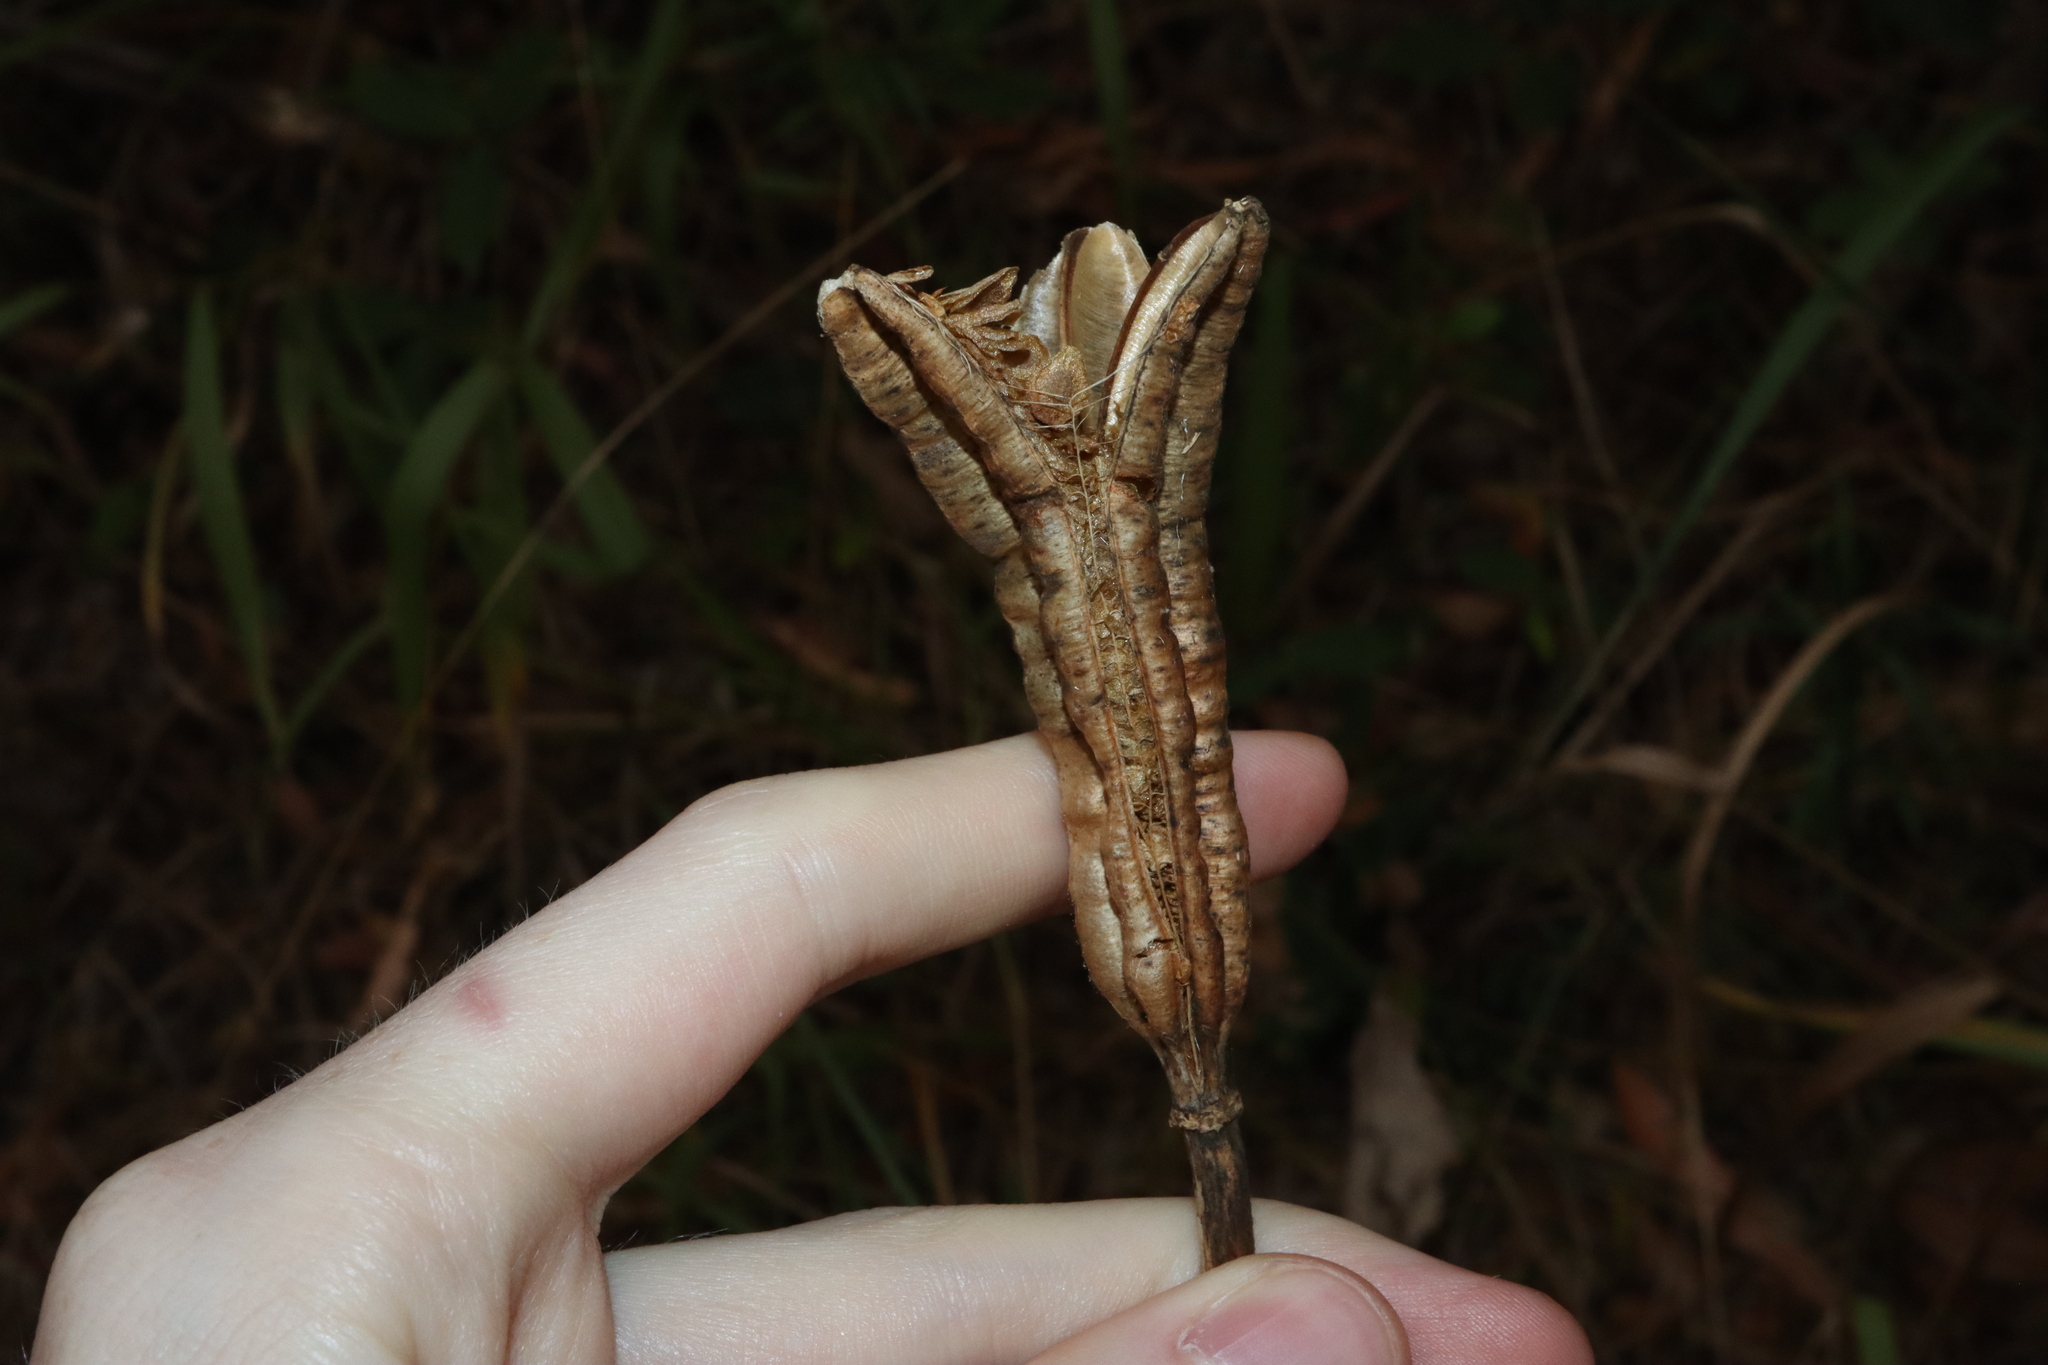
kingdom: Plantae
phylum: Tracheophyta
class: Liliopsida
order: Liliales
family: Liliaceae
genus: Lilium
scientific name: Lilium formosanum
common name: Formosa lily
